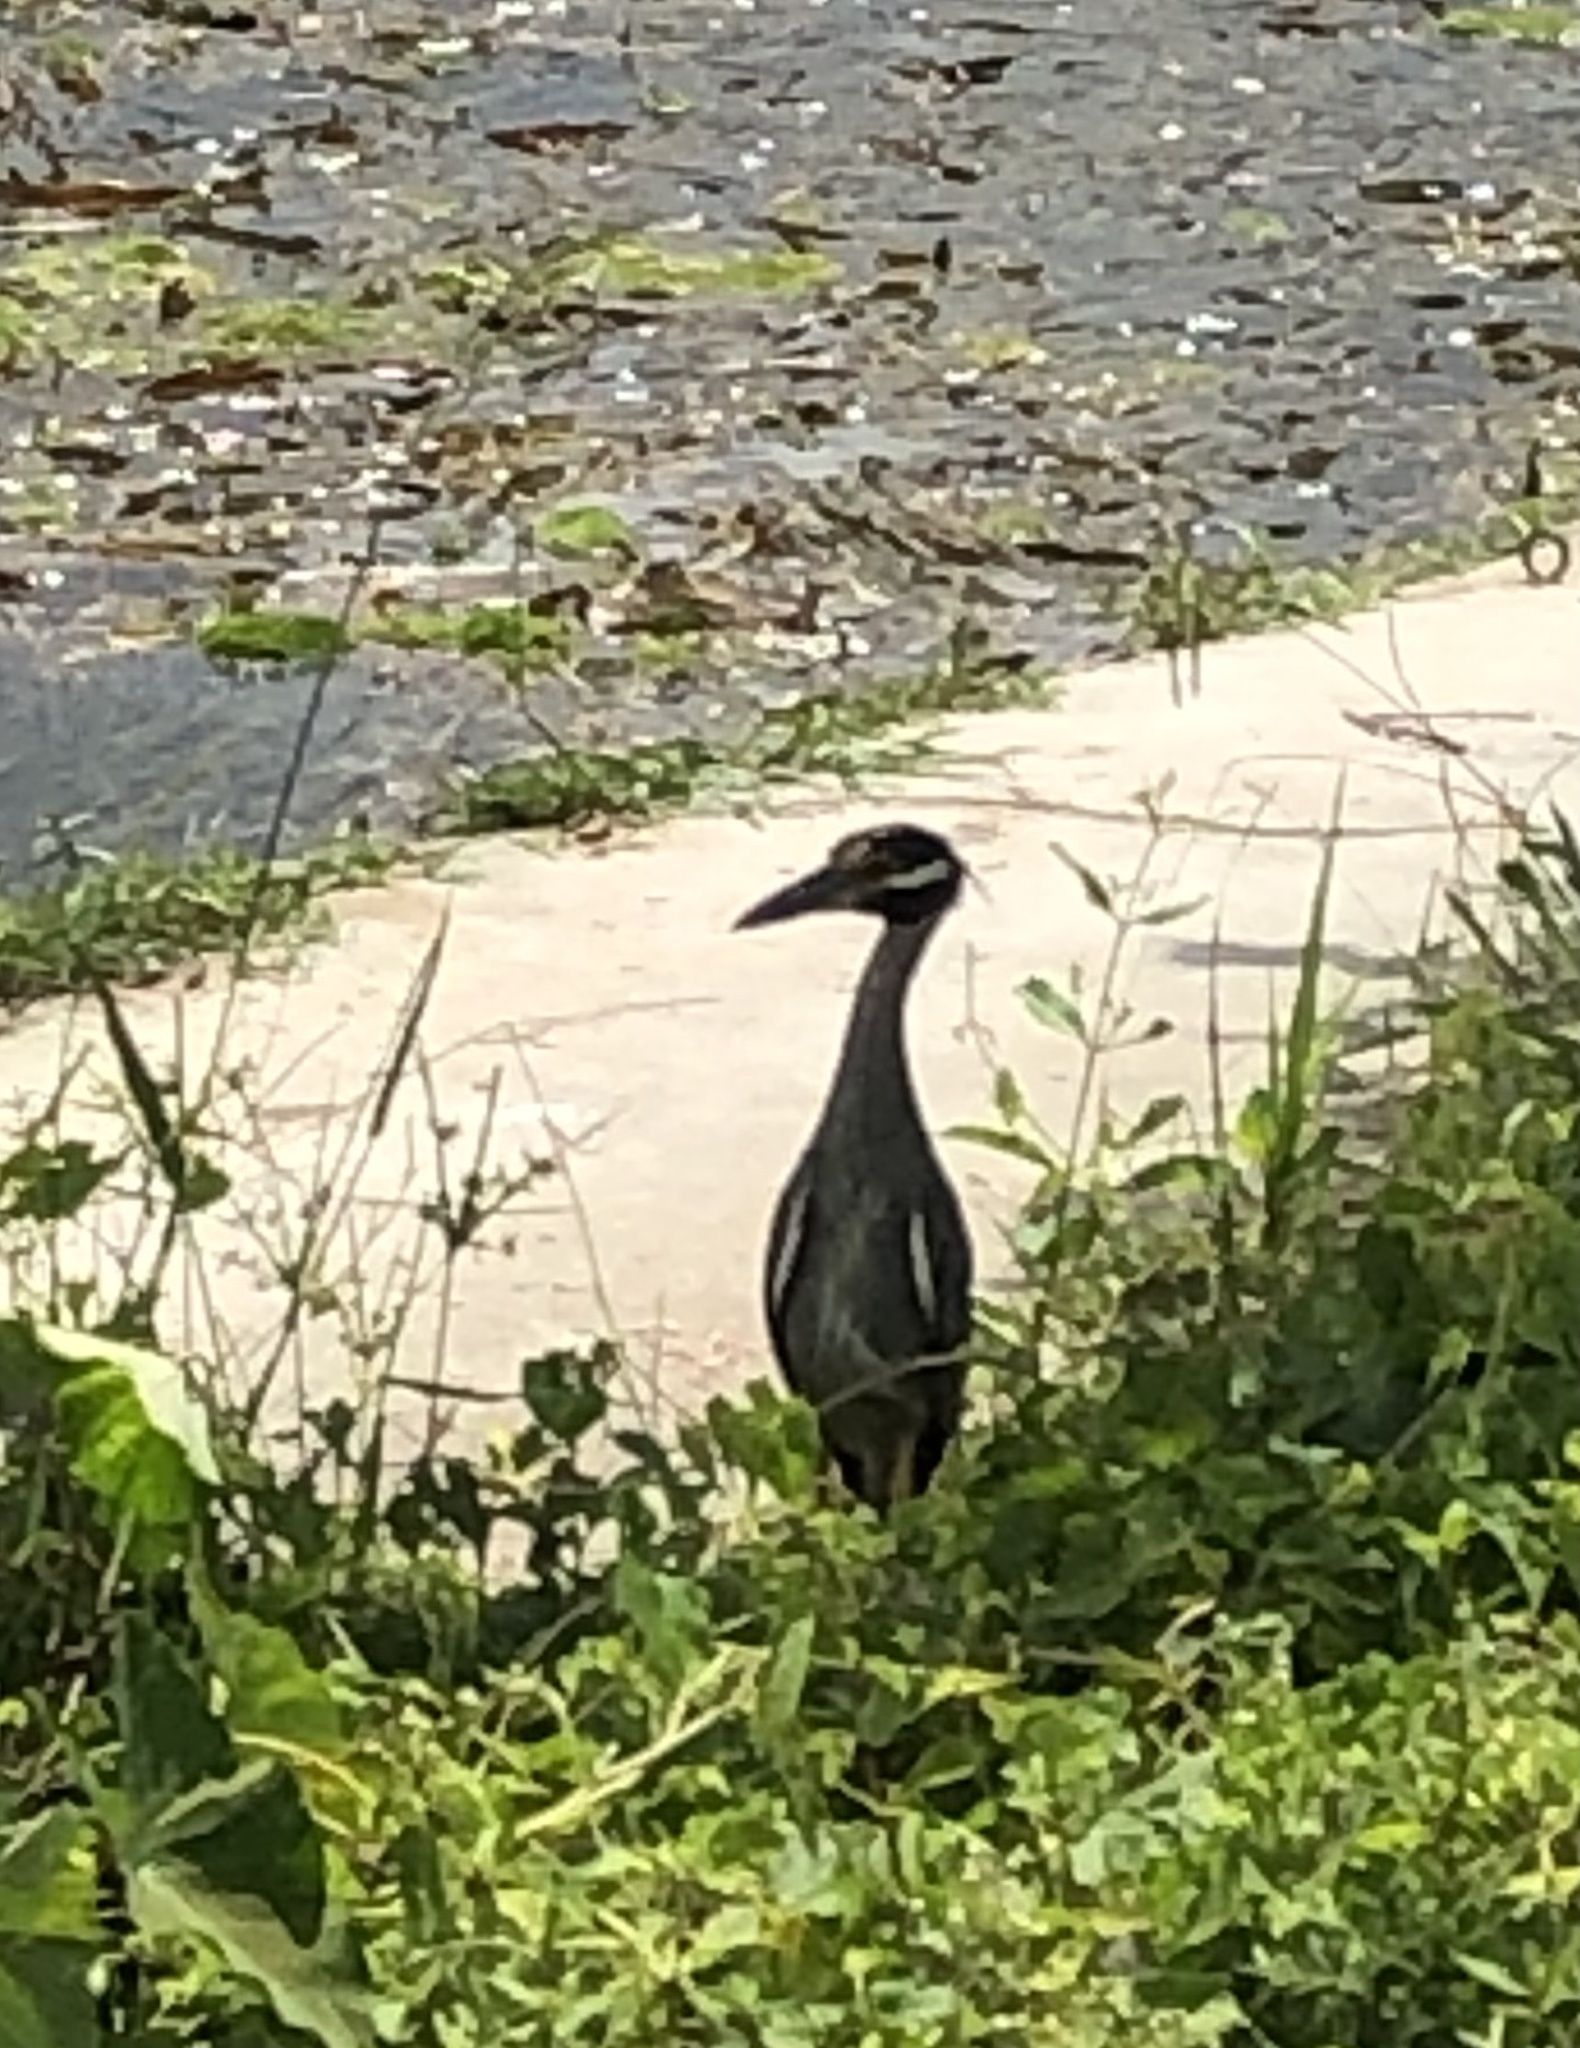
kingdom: Animalia
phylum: Chordata
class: Aves
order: Pelecaniformes
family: Ardeidae
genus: Nyctanassa
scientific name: Nyctanassa violacea
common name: Yellow-crowned night heron
